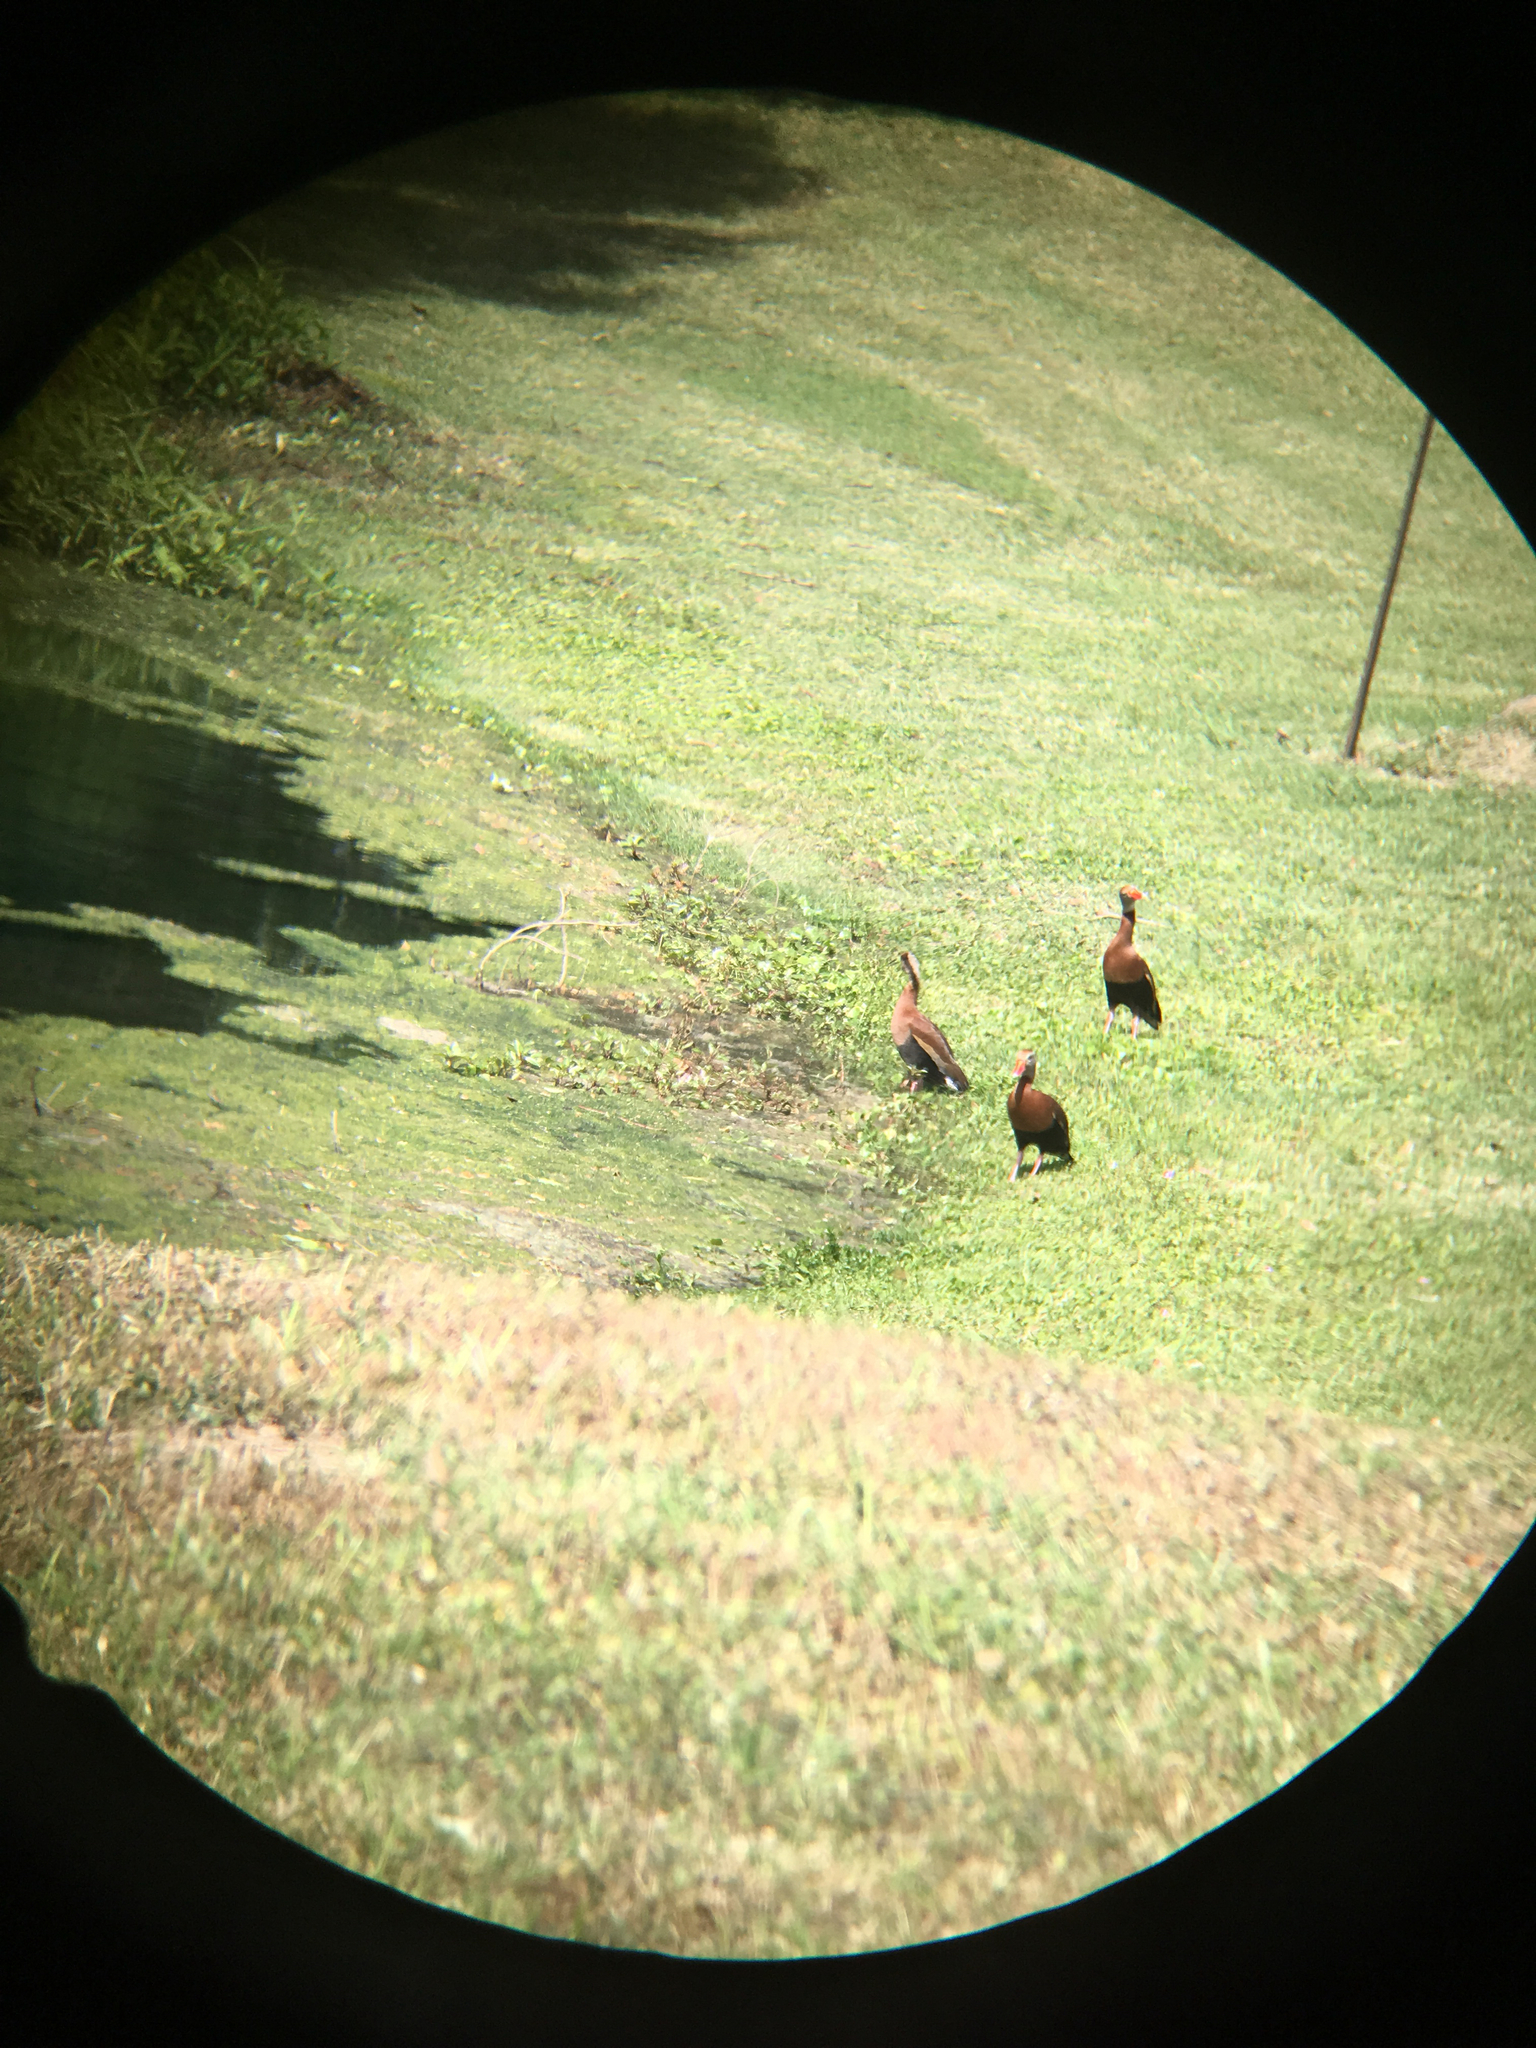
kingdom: Animalia
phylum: Chordata
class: Aves
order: Anseriformes
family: Anatidae
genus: Dendrocygna
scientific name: Dendrocygna autumnalis
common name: Black-bellied whistling duck
